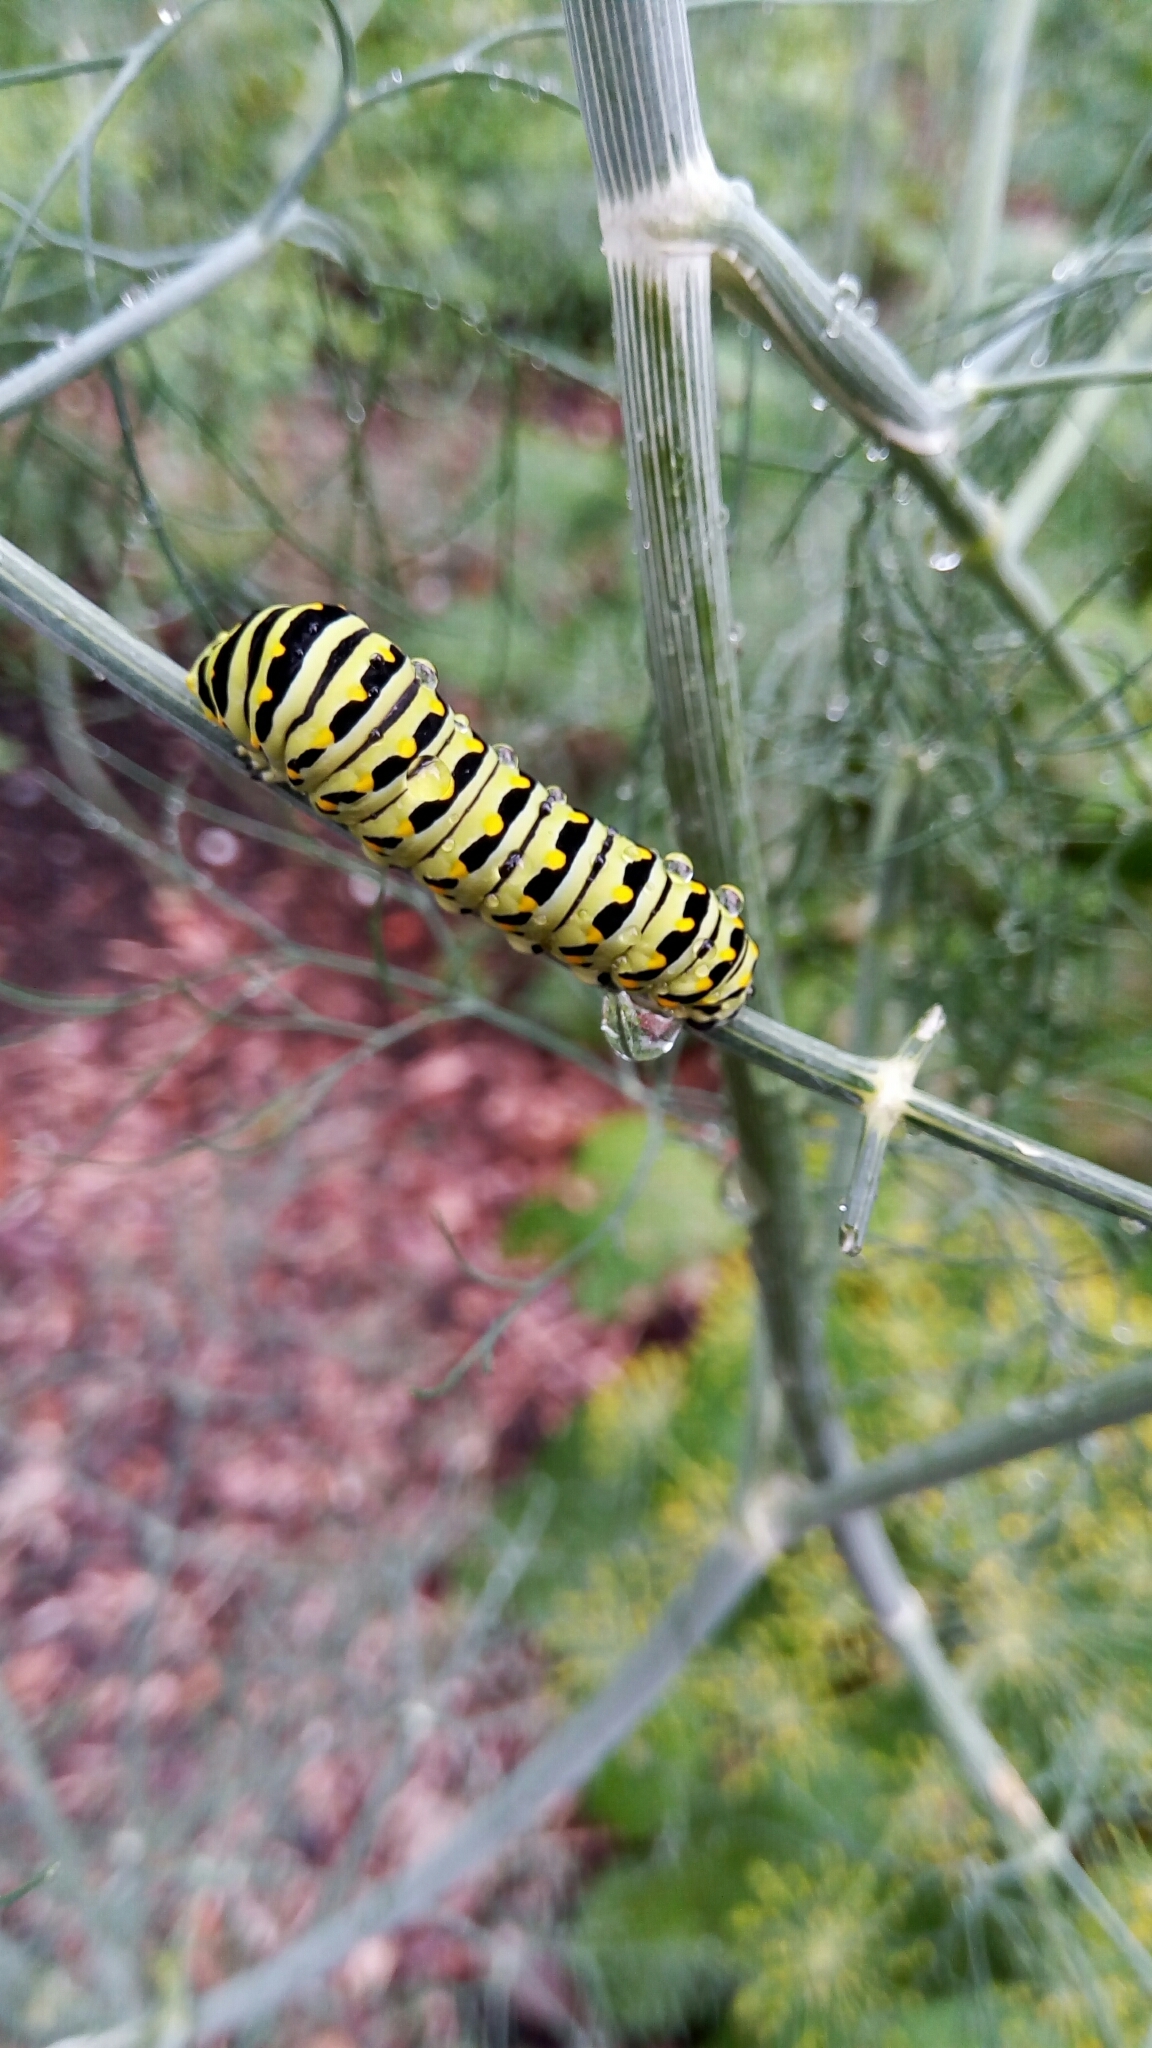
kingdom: Animalia
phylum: Arthropoda
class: Insecta
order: Lepidoptera
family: Papilionidae
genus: Papilio
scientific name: Papilio polyxenes
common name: Black swallowtail
